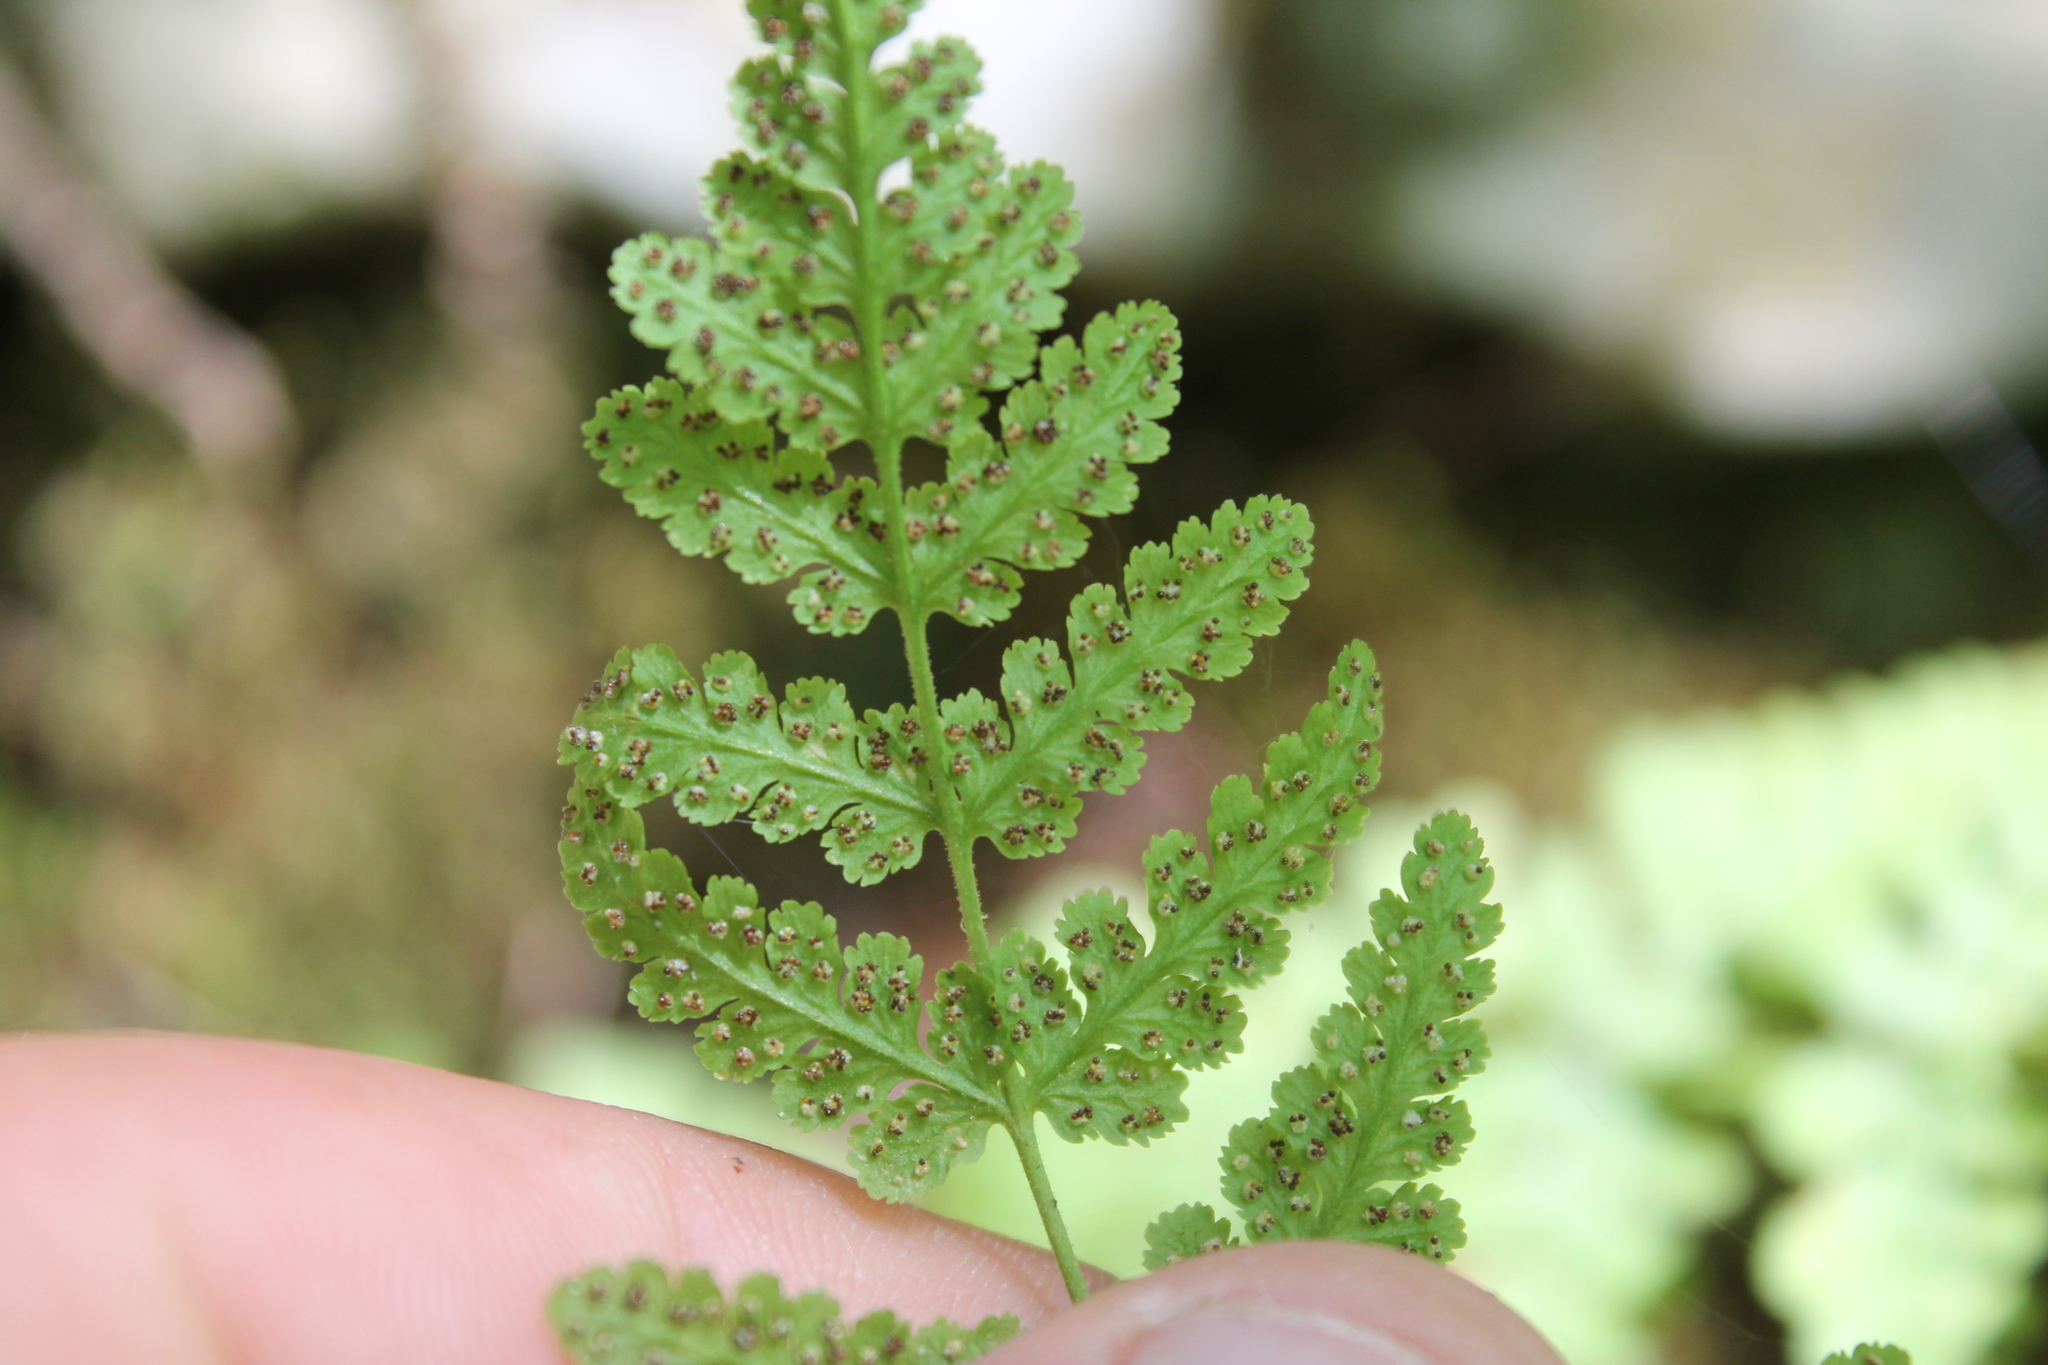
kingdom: Plantae
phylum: Tracheophyta
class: Polypodiopsida
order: Polypodiales
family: Woodsiaceae
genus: Physematium
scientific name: Physematium obtusum
